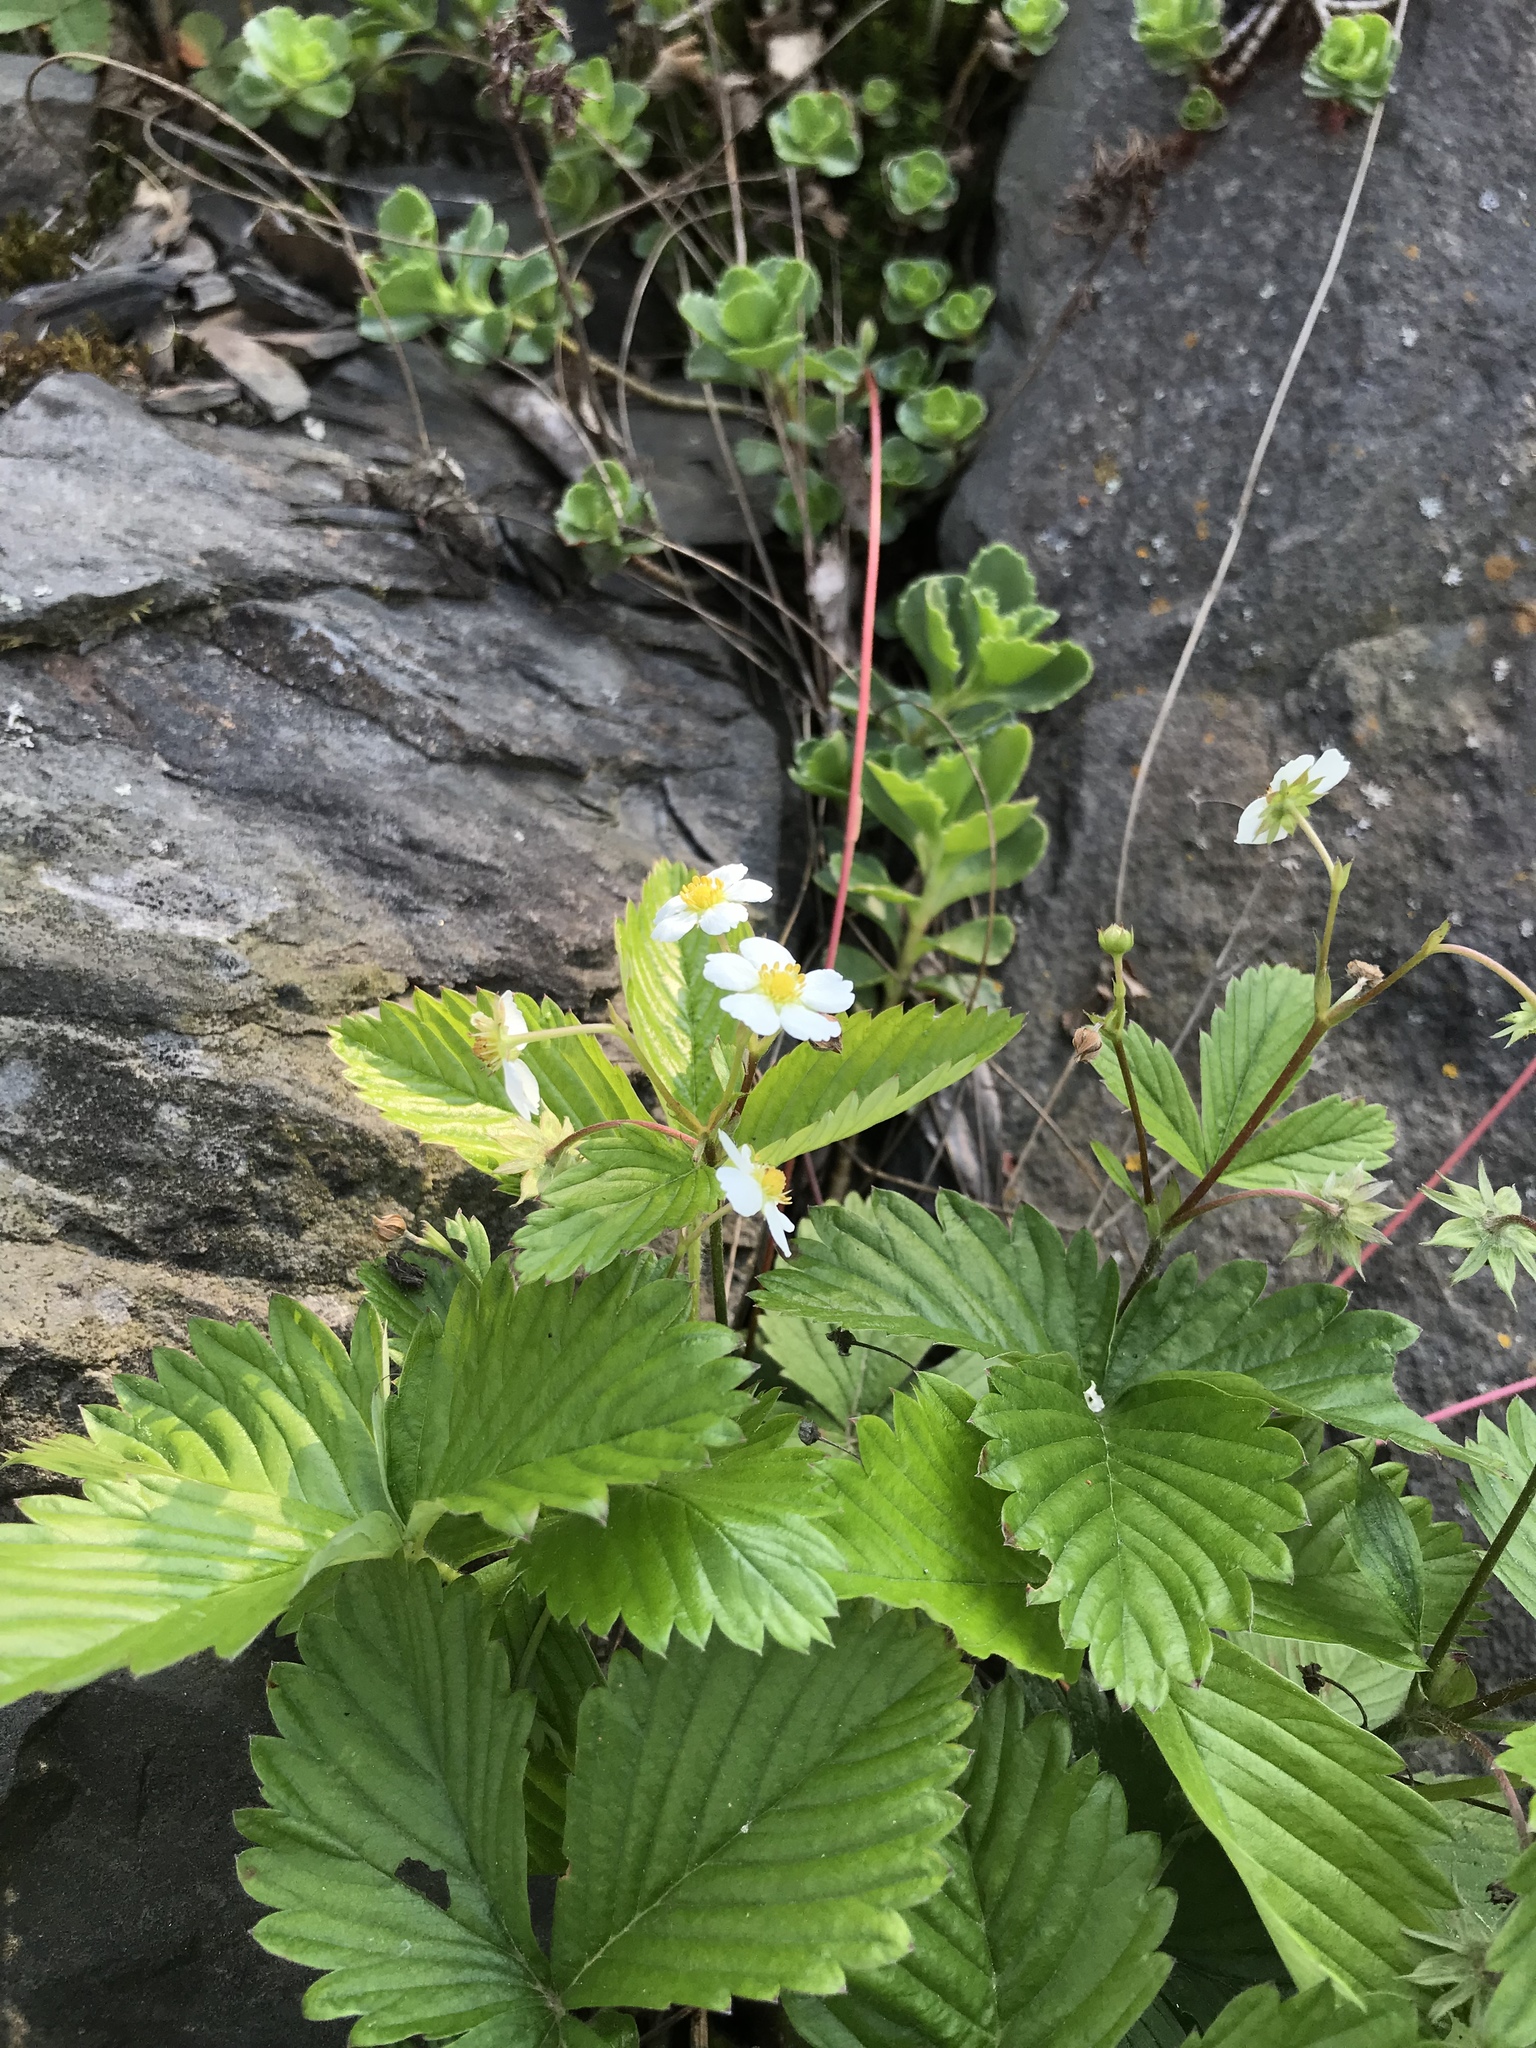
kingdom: Plantae
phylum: Tracheophyta
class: Magnoliopsida
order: Rosales
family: Rosaceae
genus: Fragaria
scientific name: Fragaria vesca
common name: Wild strawberry
